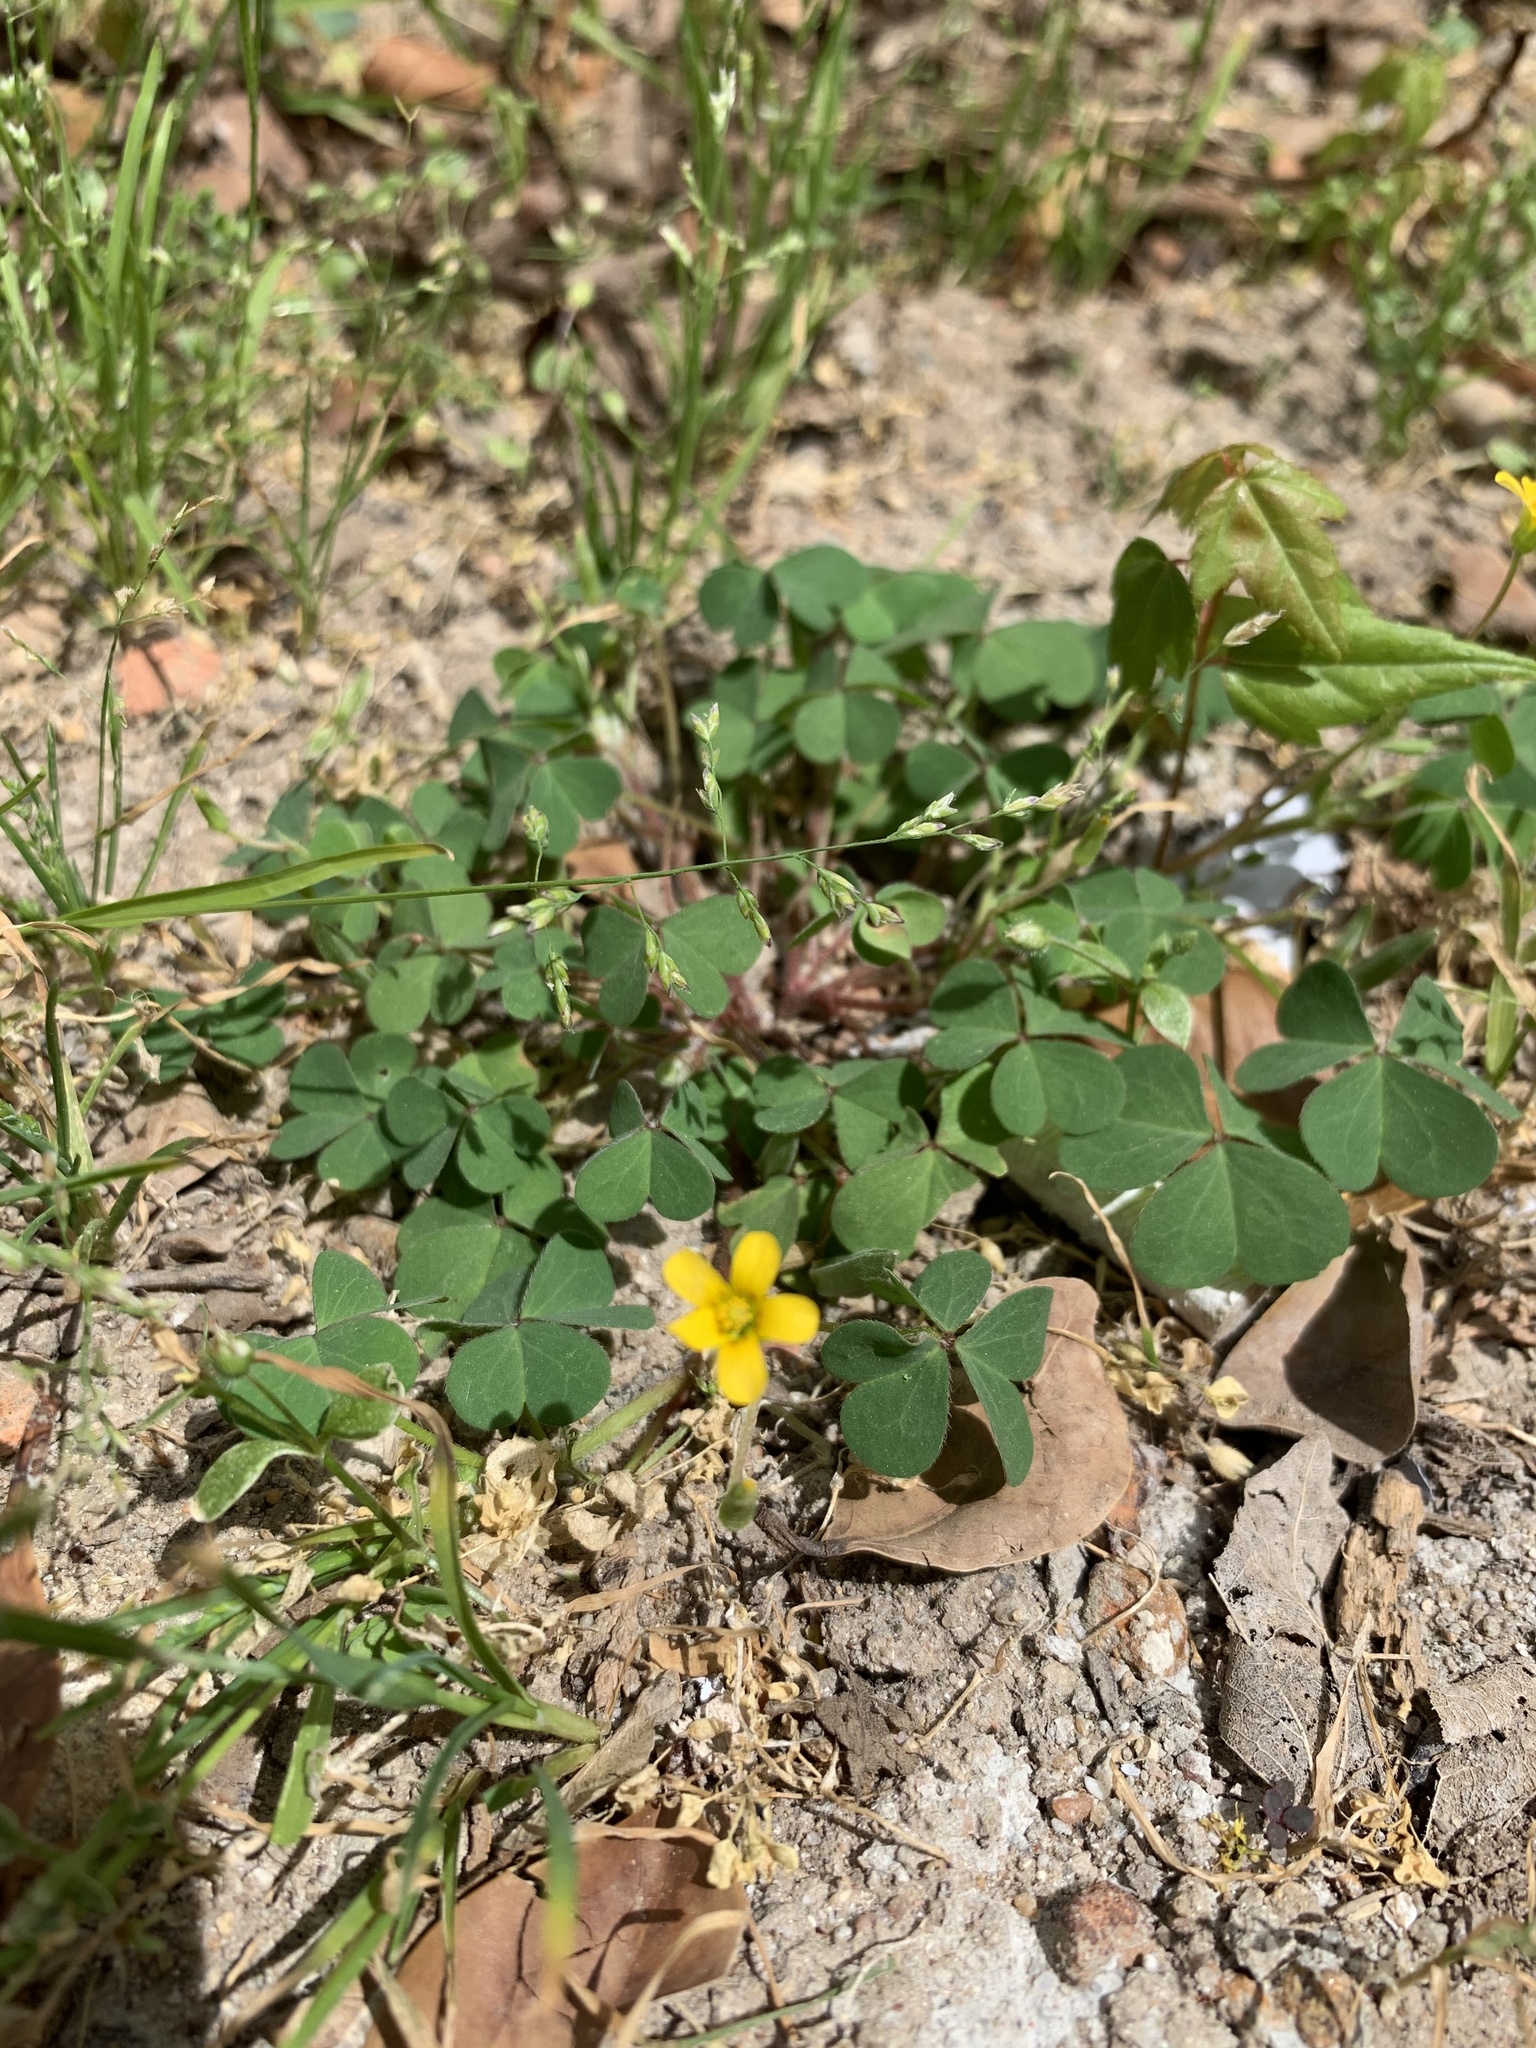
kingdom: Plantae
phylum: Tracheophyta
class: Magnoliopsida
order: Oxalidales
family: Oxalidaceae
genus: Oxalis
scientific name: Oxalis corniculata
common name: Procumbent yellow-sorrel
